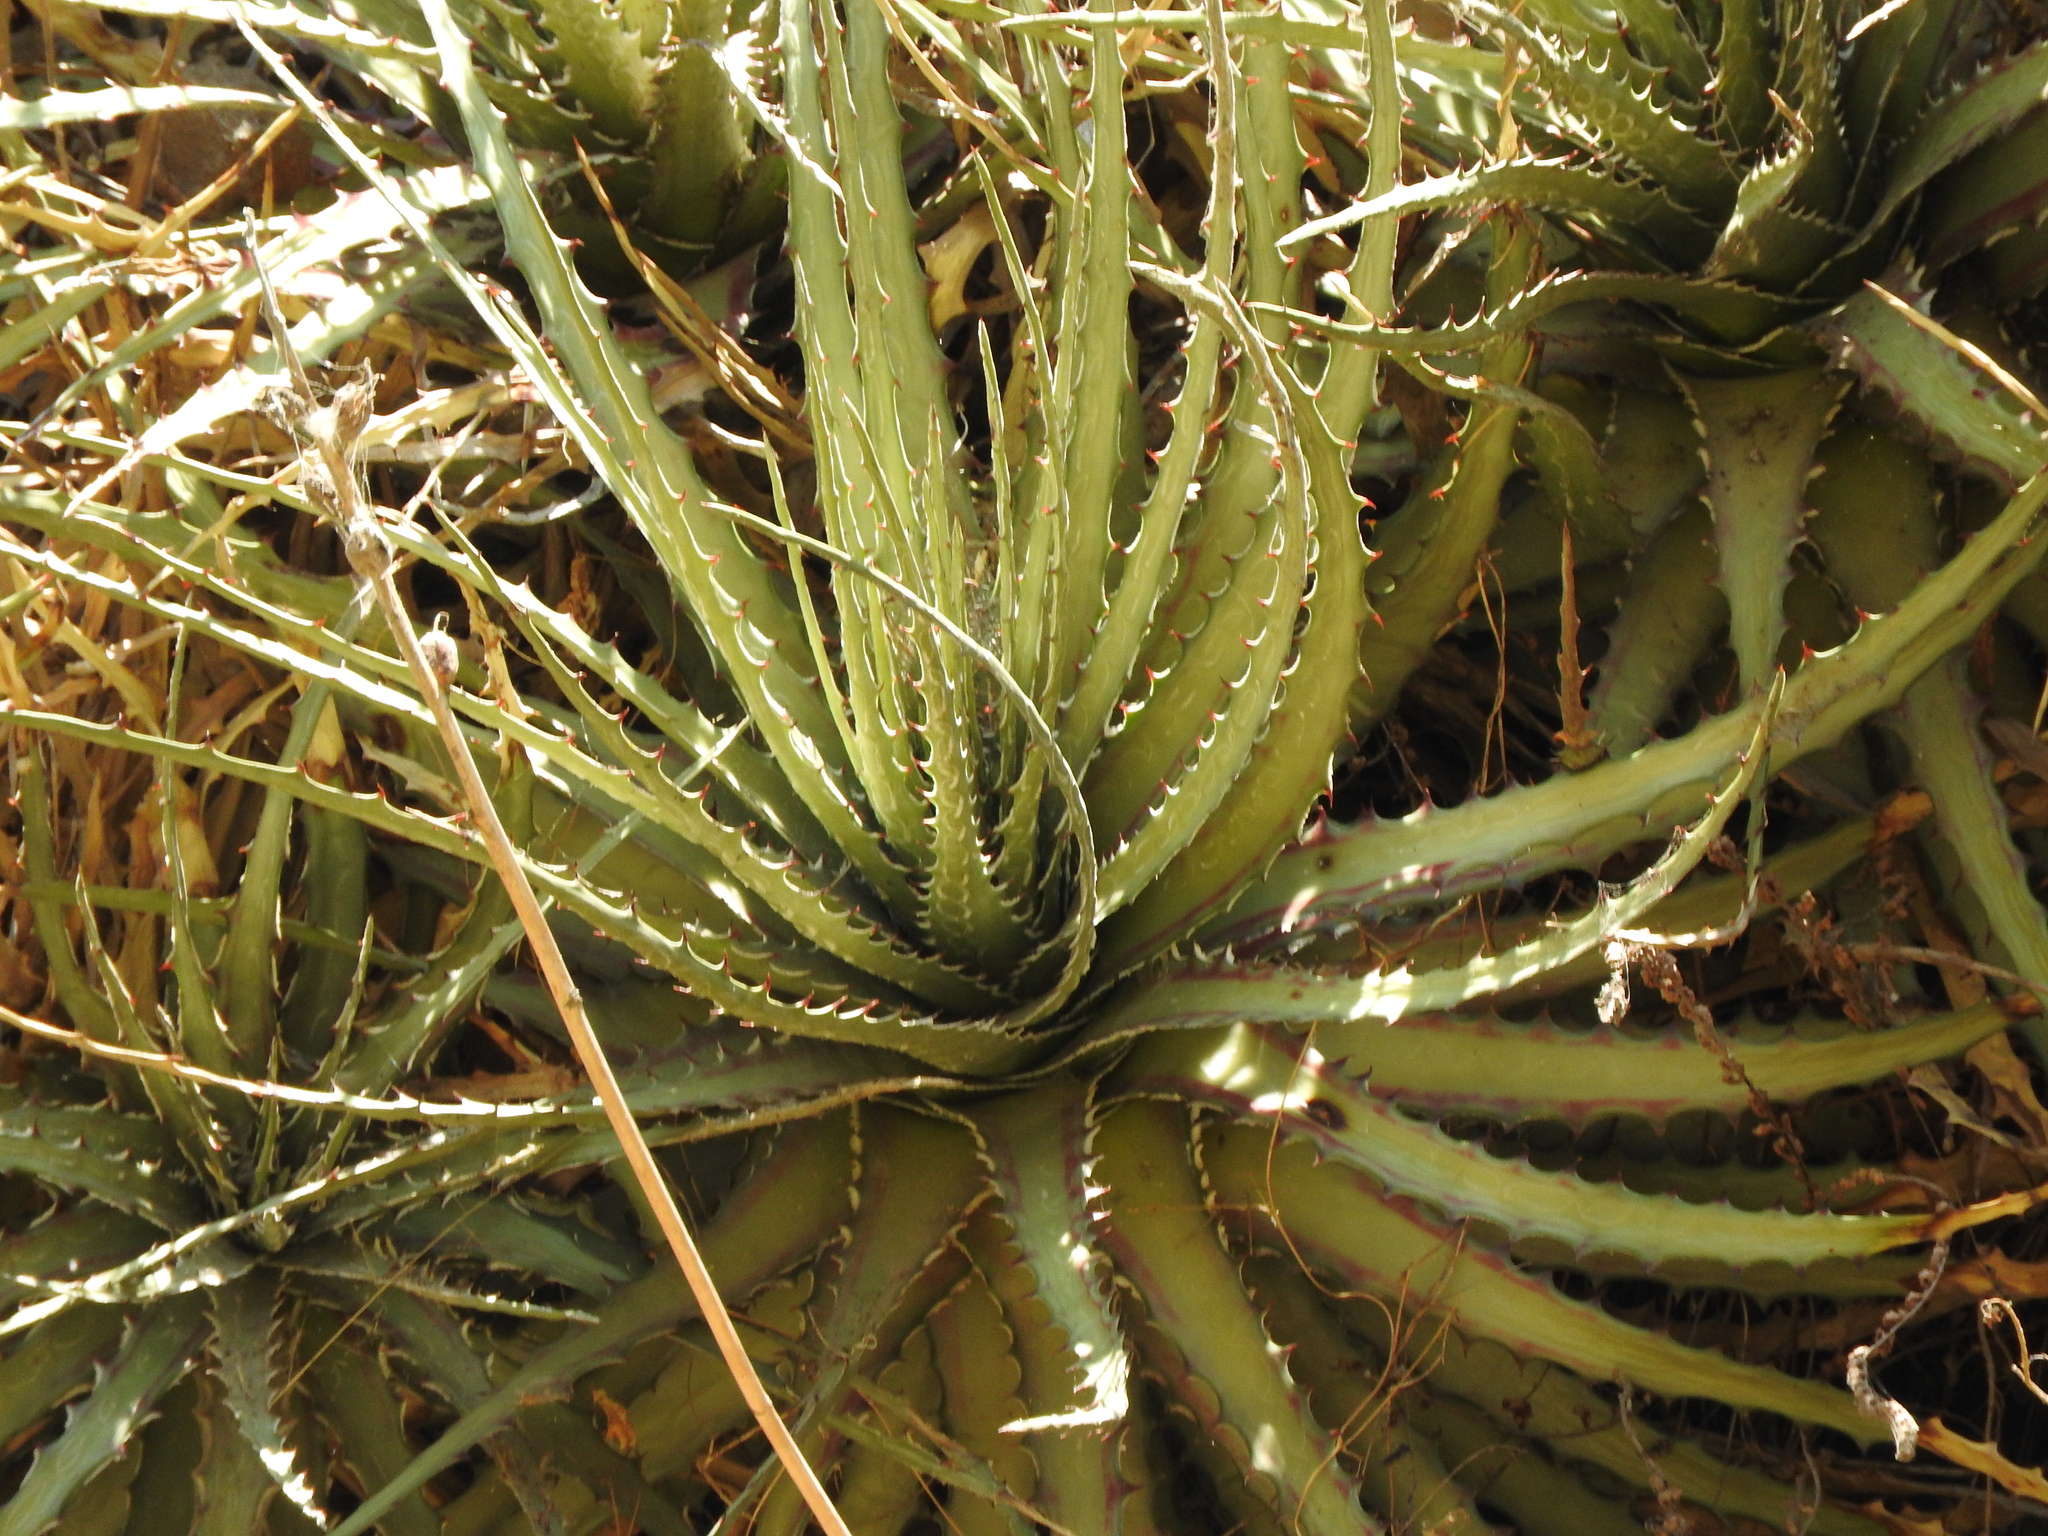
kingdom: Plantae
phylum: Tracheophyta
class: Liliopsida
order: Poales
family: Bromeliaceae
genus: Hechtia
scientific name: Hechtia glomerata
